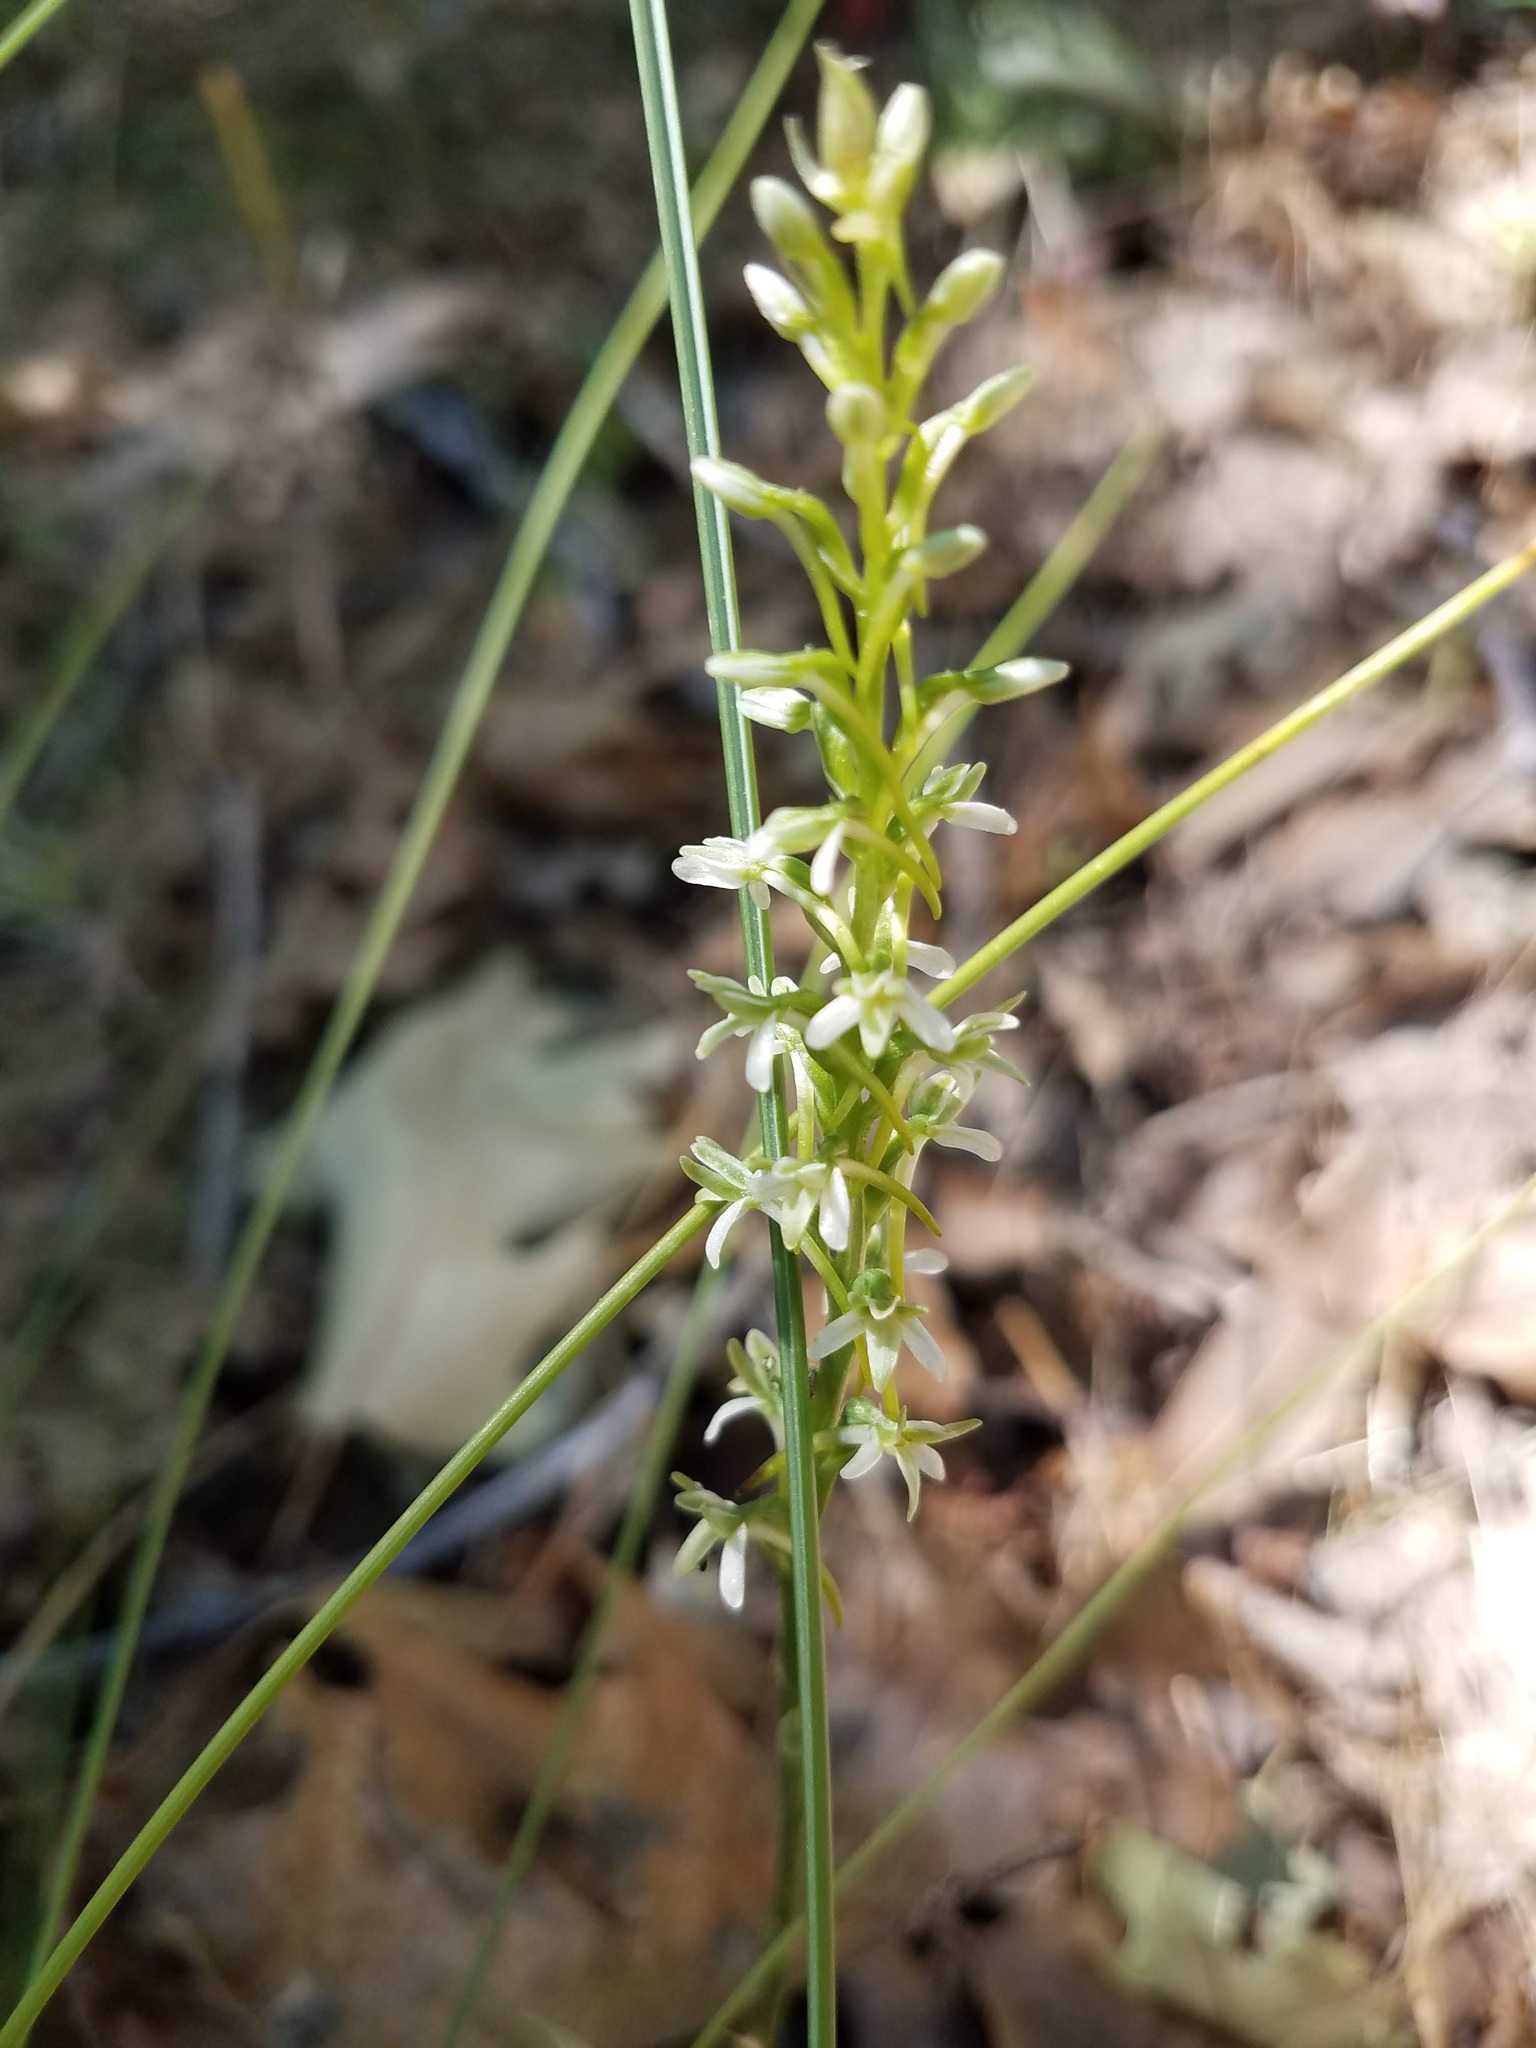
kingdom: Plantae
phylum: Tracheophyta
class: Liliopsida
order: Asparagales
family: Orchidaceae
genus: Platanthera
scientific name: Platanthera elegans
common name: Coast piperia
